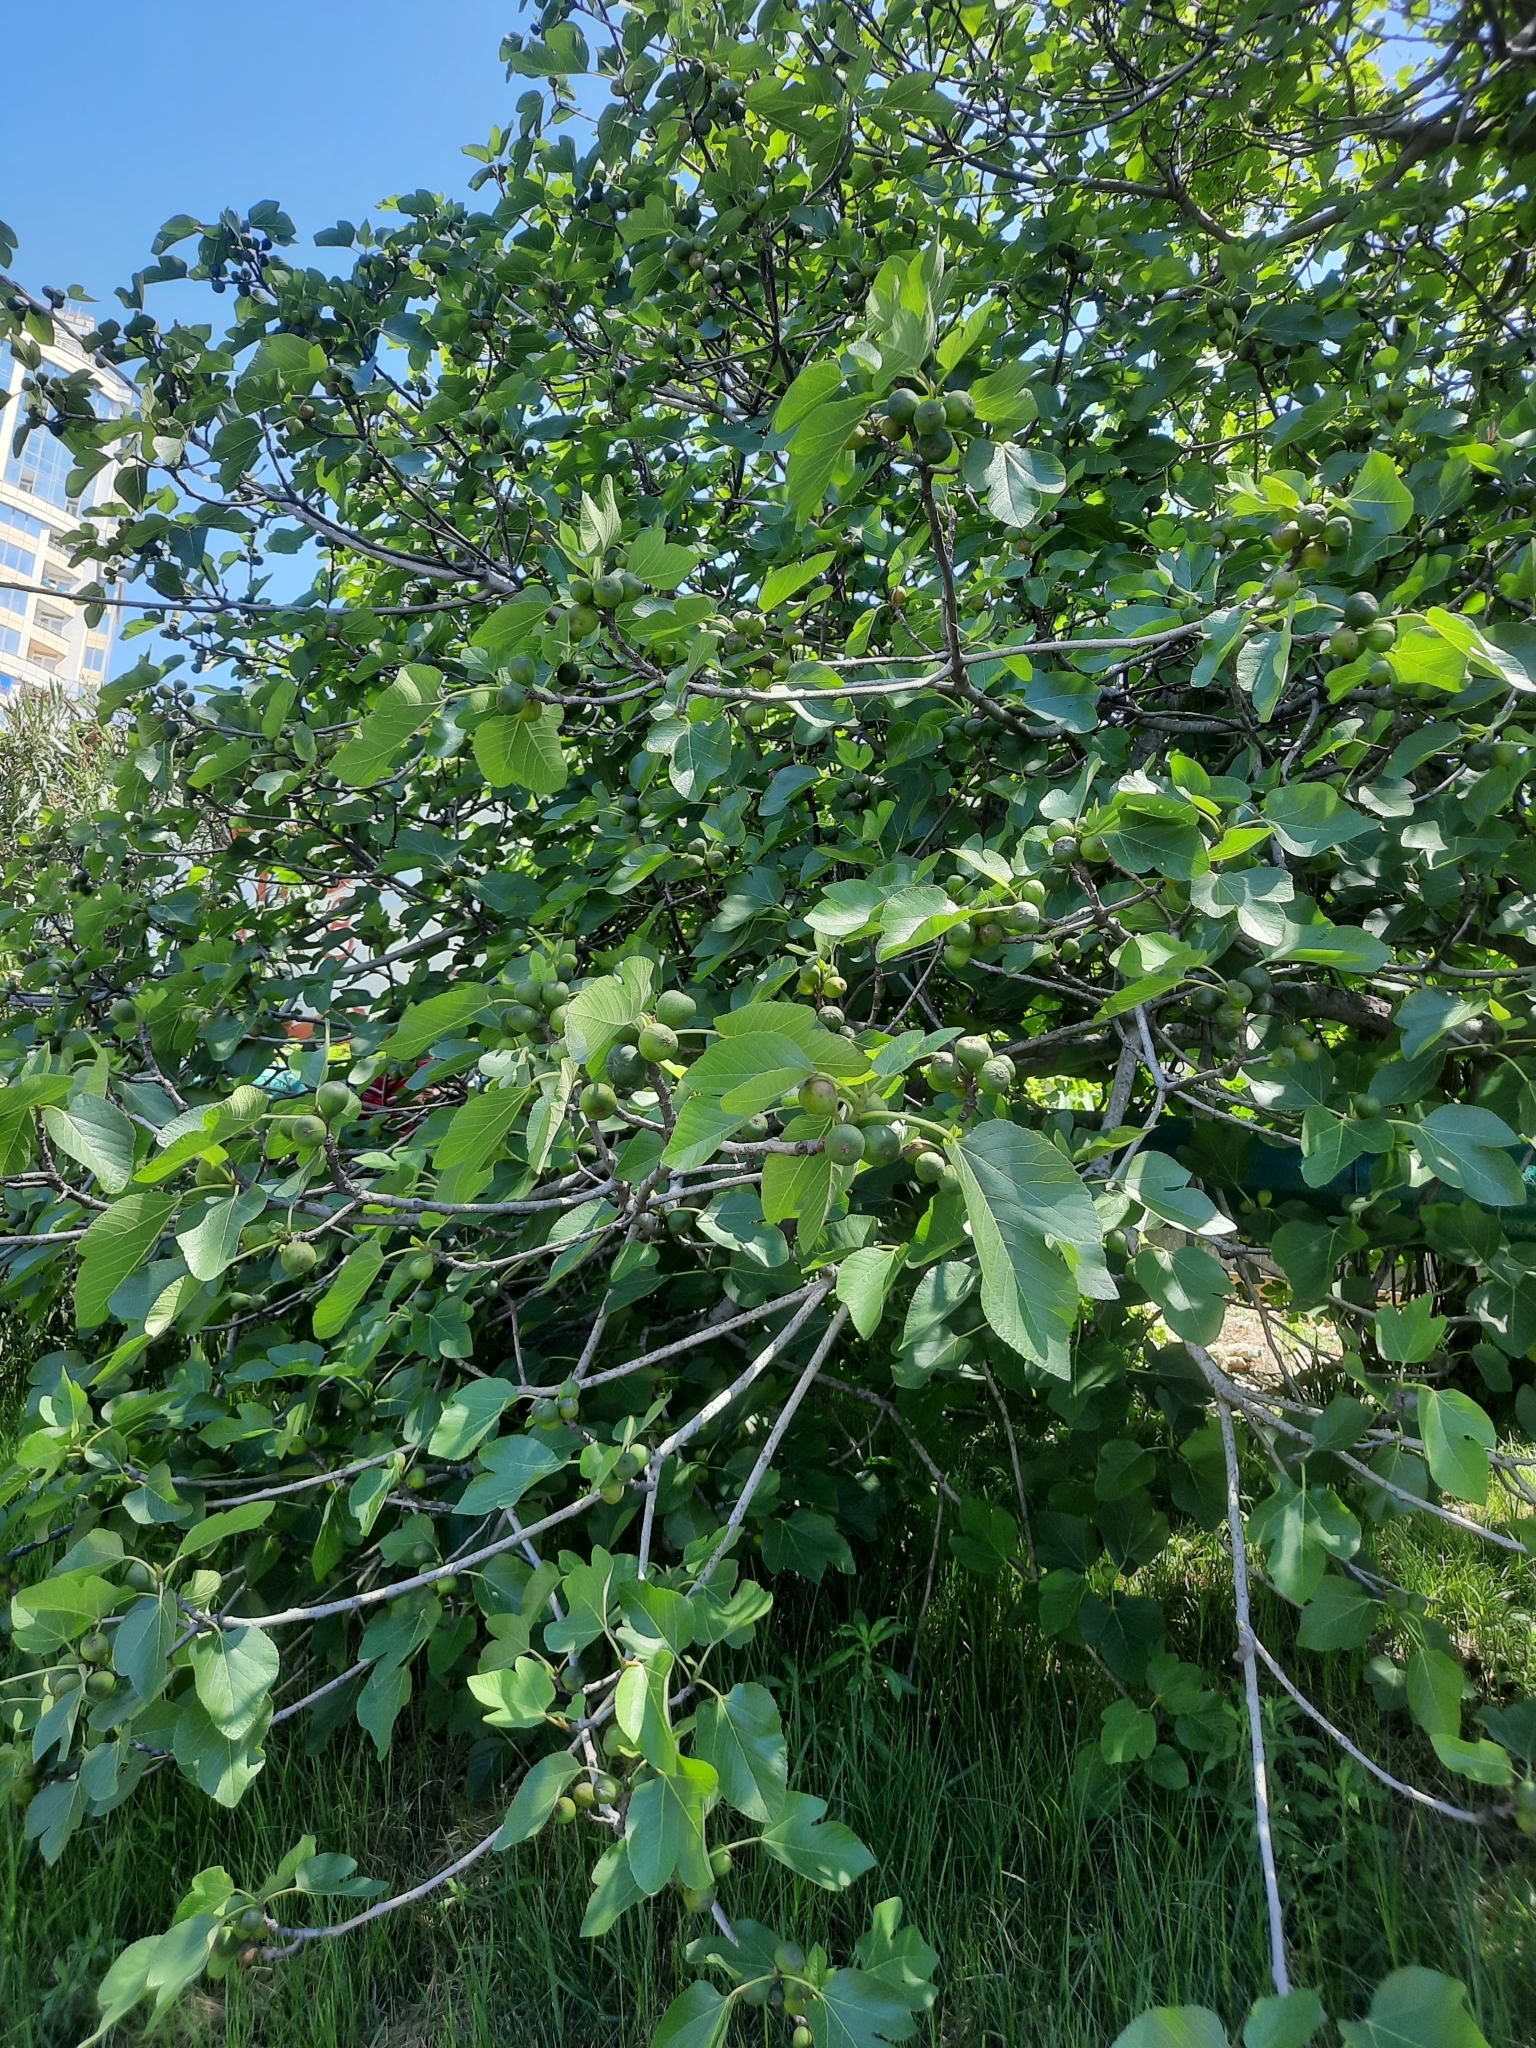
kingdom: Plantae
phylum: Tracheophyta
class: Magnoliopsida
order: Rosales
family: Moraceae
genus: Ficus
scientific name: Ficus carica
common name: Fig
